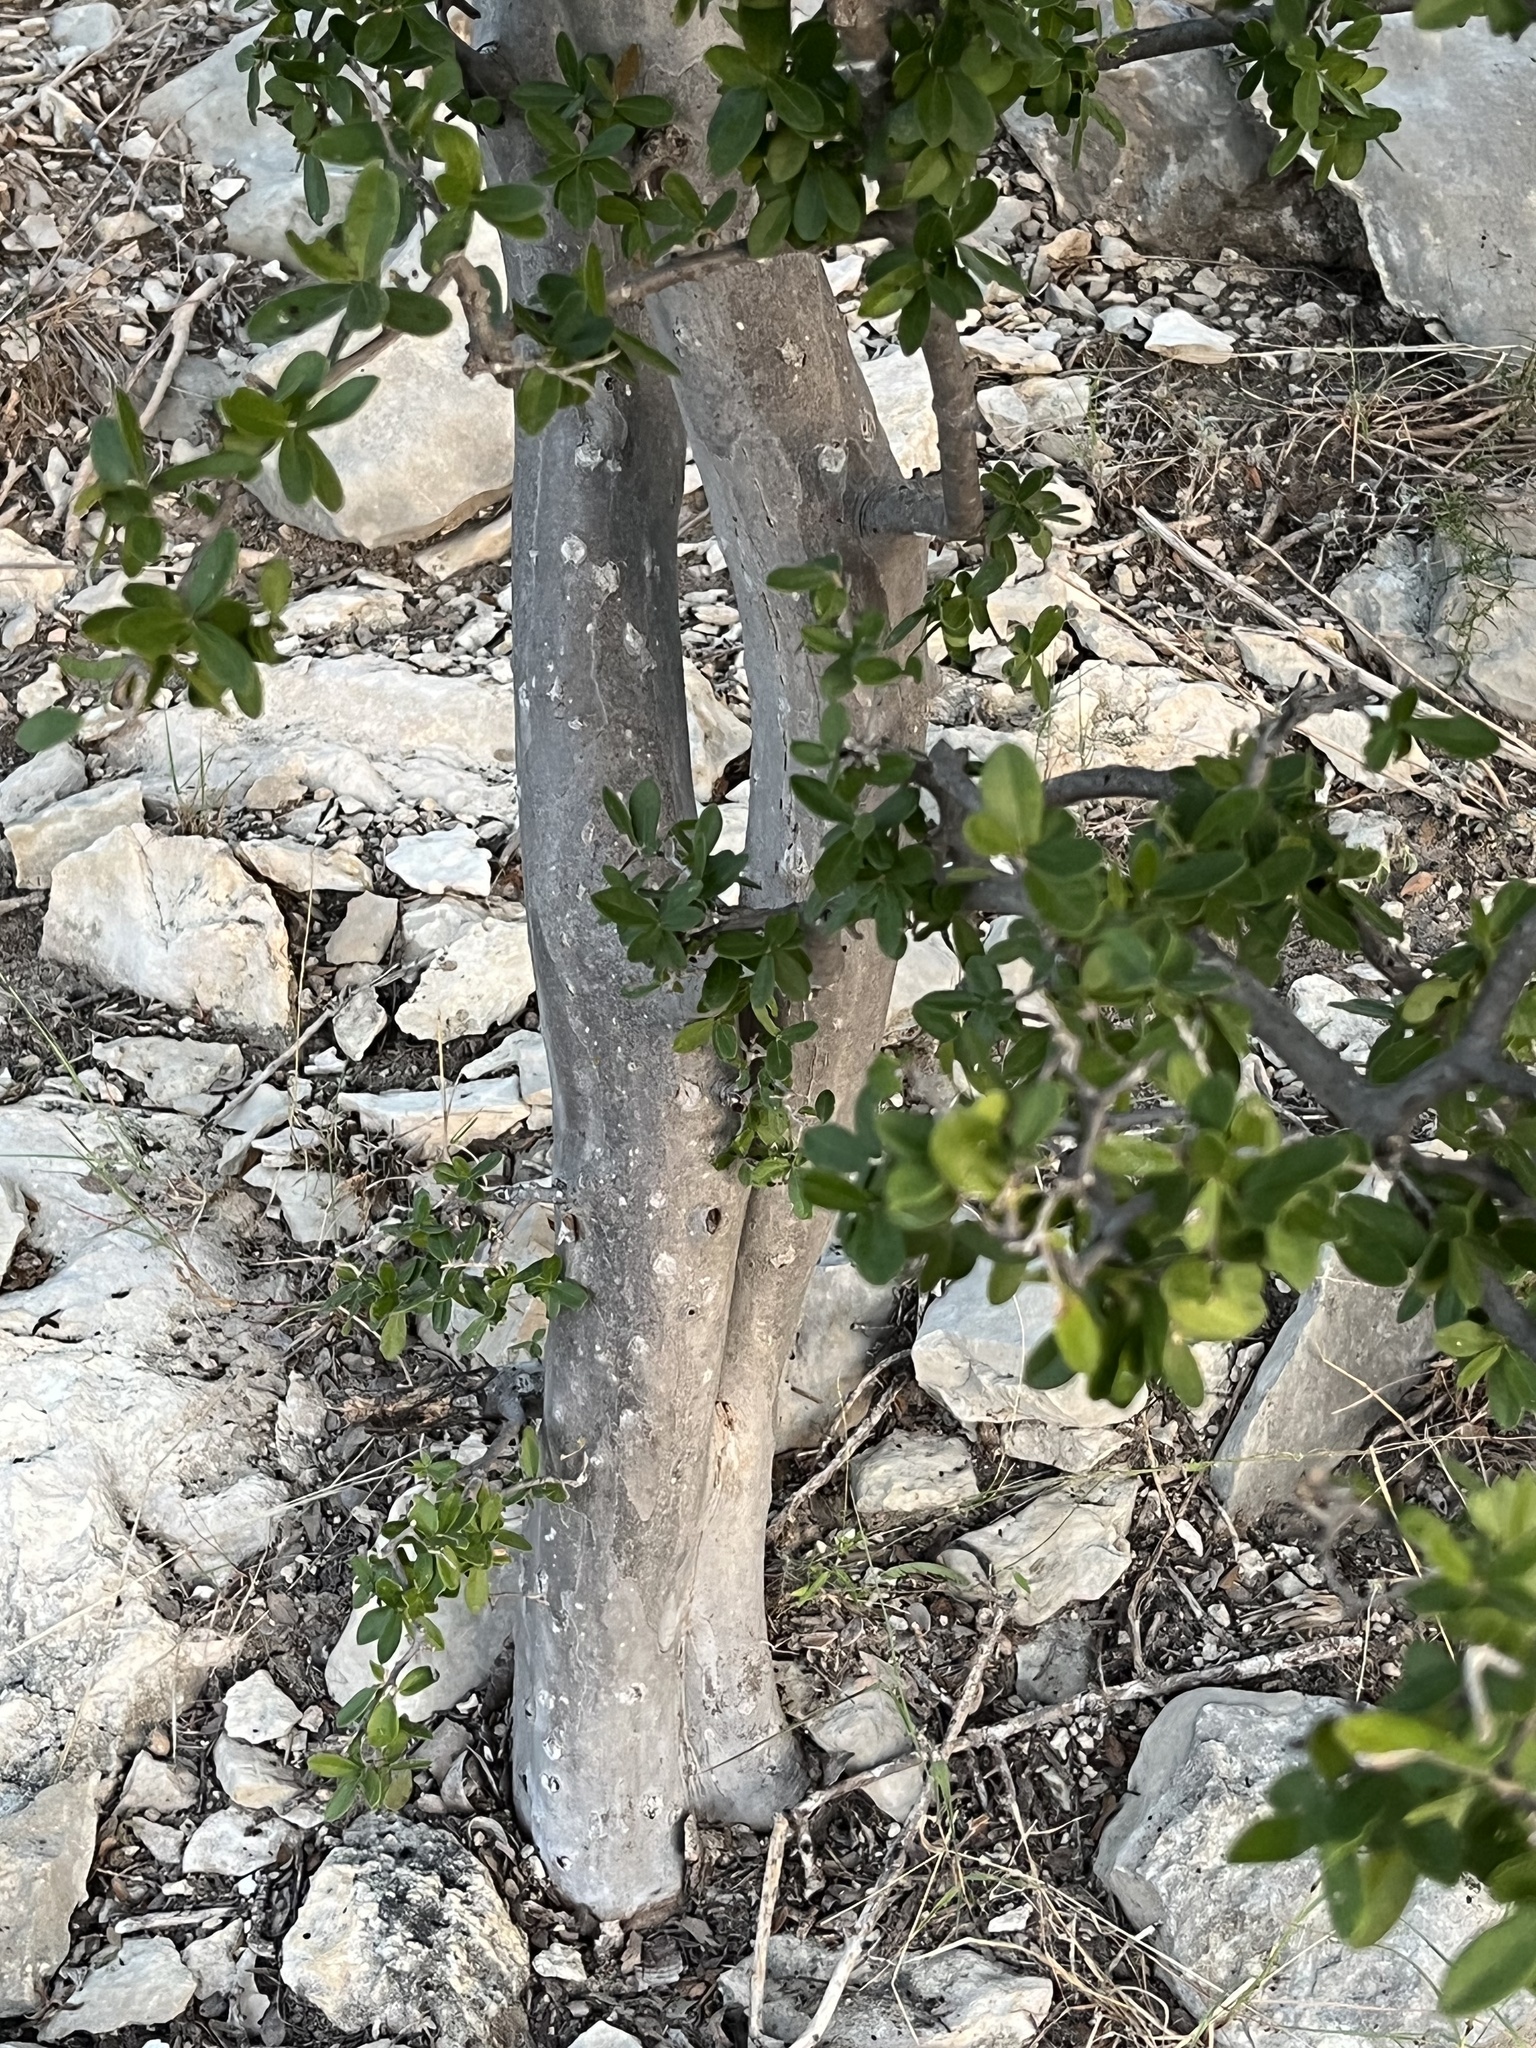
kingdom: Plantae
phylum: Tracheophyta
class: Magnoliopsida
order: Ericales
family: Ebenaceae
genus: Diospyros
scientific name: Diospyros texana
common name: Texas persimmon
